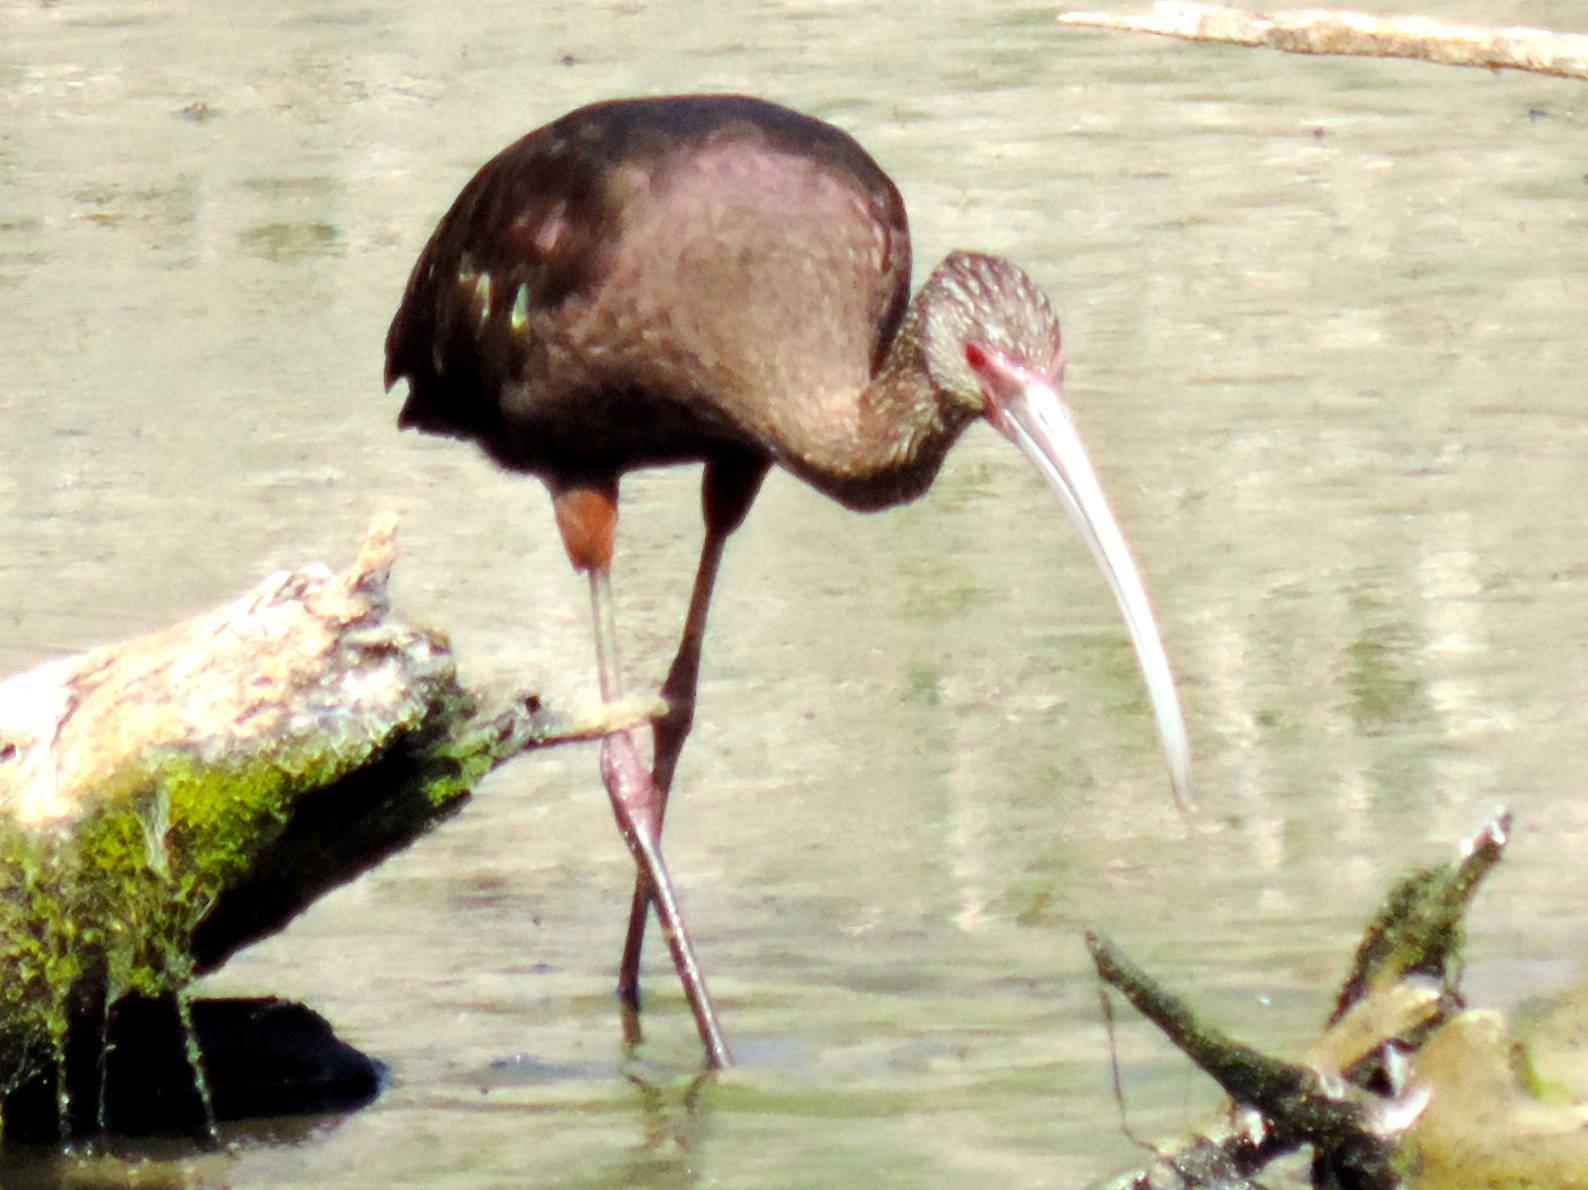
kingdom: Animalia
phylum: Chordata
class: Aves
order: Pelecaniformes
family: Threskiornithidae
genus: Plegadis
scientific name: Plegadis chihi
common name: White-faced ibis
